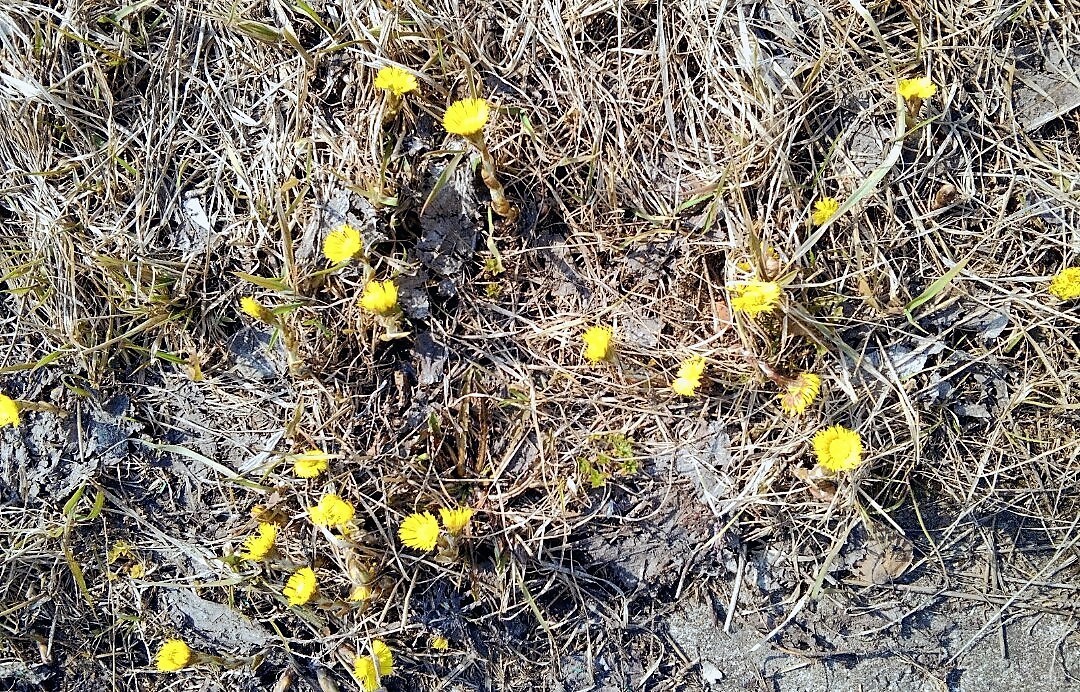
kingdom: Plantae
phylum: Tracheophyta
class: Magnoliopsida
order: Asterales
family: Asteraceae
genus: Tussilago
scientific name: Tussilago farfara
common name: Coltsfoot
